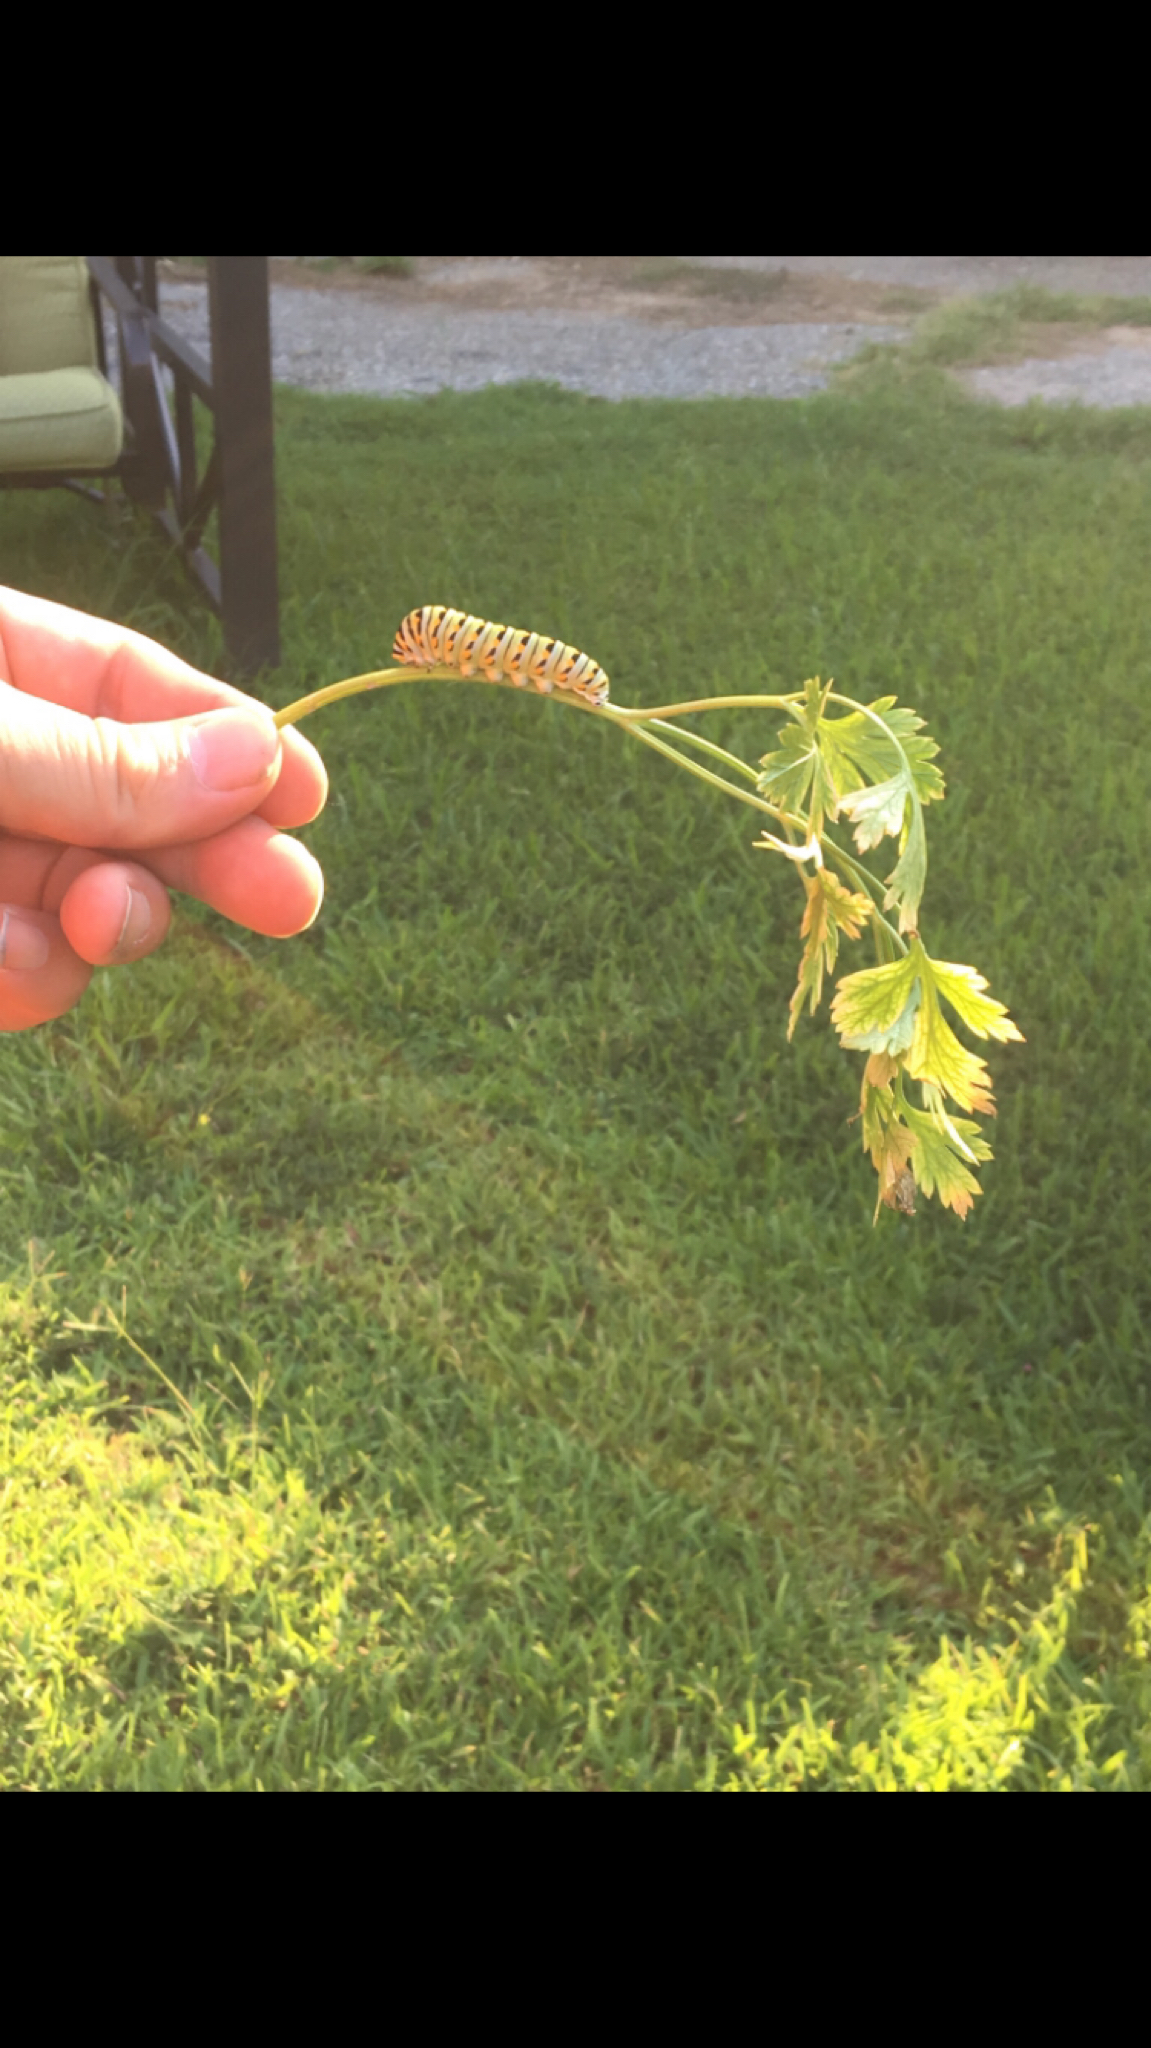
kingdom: Animalia
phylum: Arthropoda
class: Insecta
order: Lepidoptera
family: Papilionidae
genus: Papilio
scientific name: Papilio polyxenes
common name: Black swallowtail
